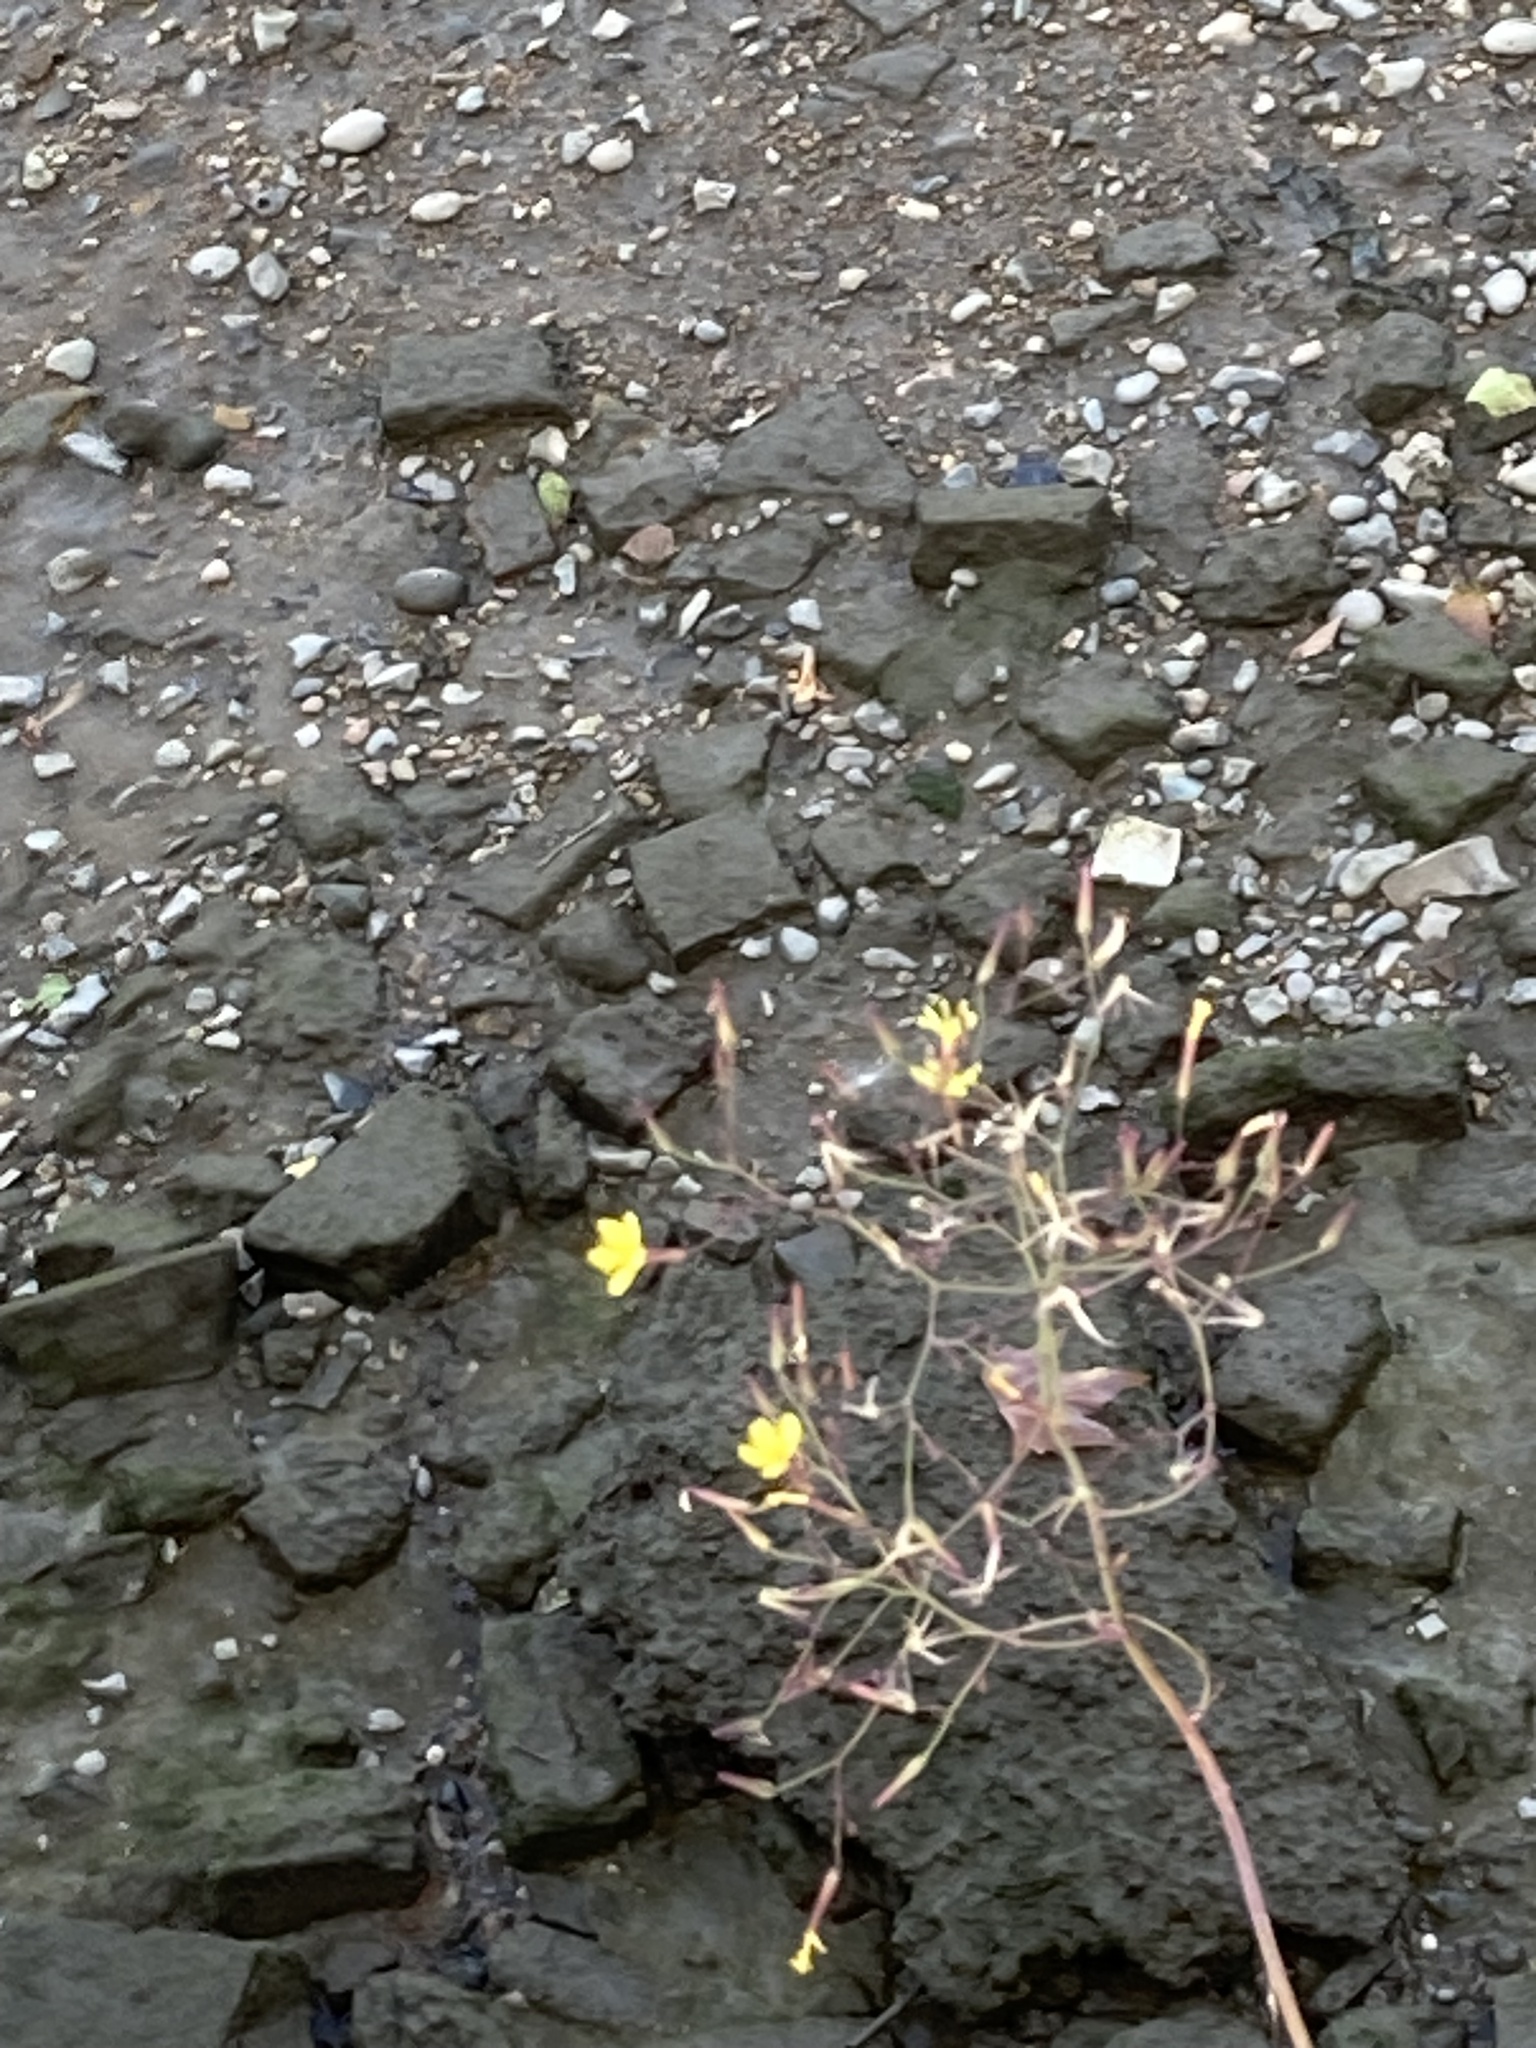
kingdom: Plantae
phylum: Tracheophyta
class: Magnoliopsida
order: Asterales
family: Asteraceae
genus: Mycelis
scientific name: Mycelis muralis
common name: Wall lettuce
